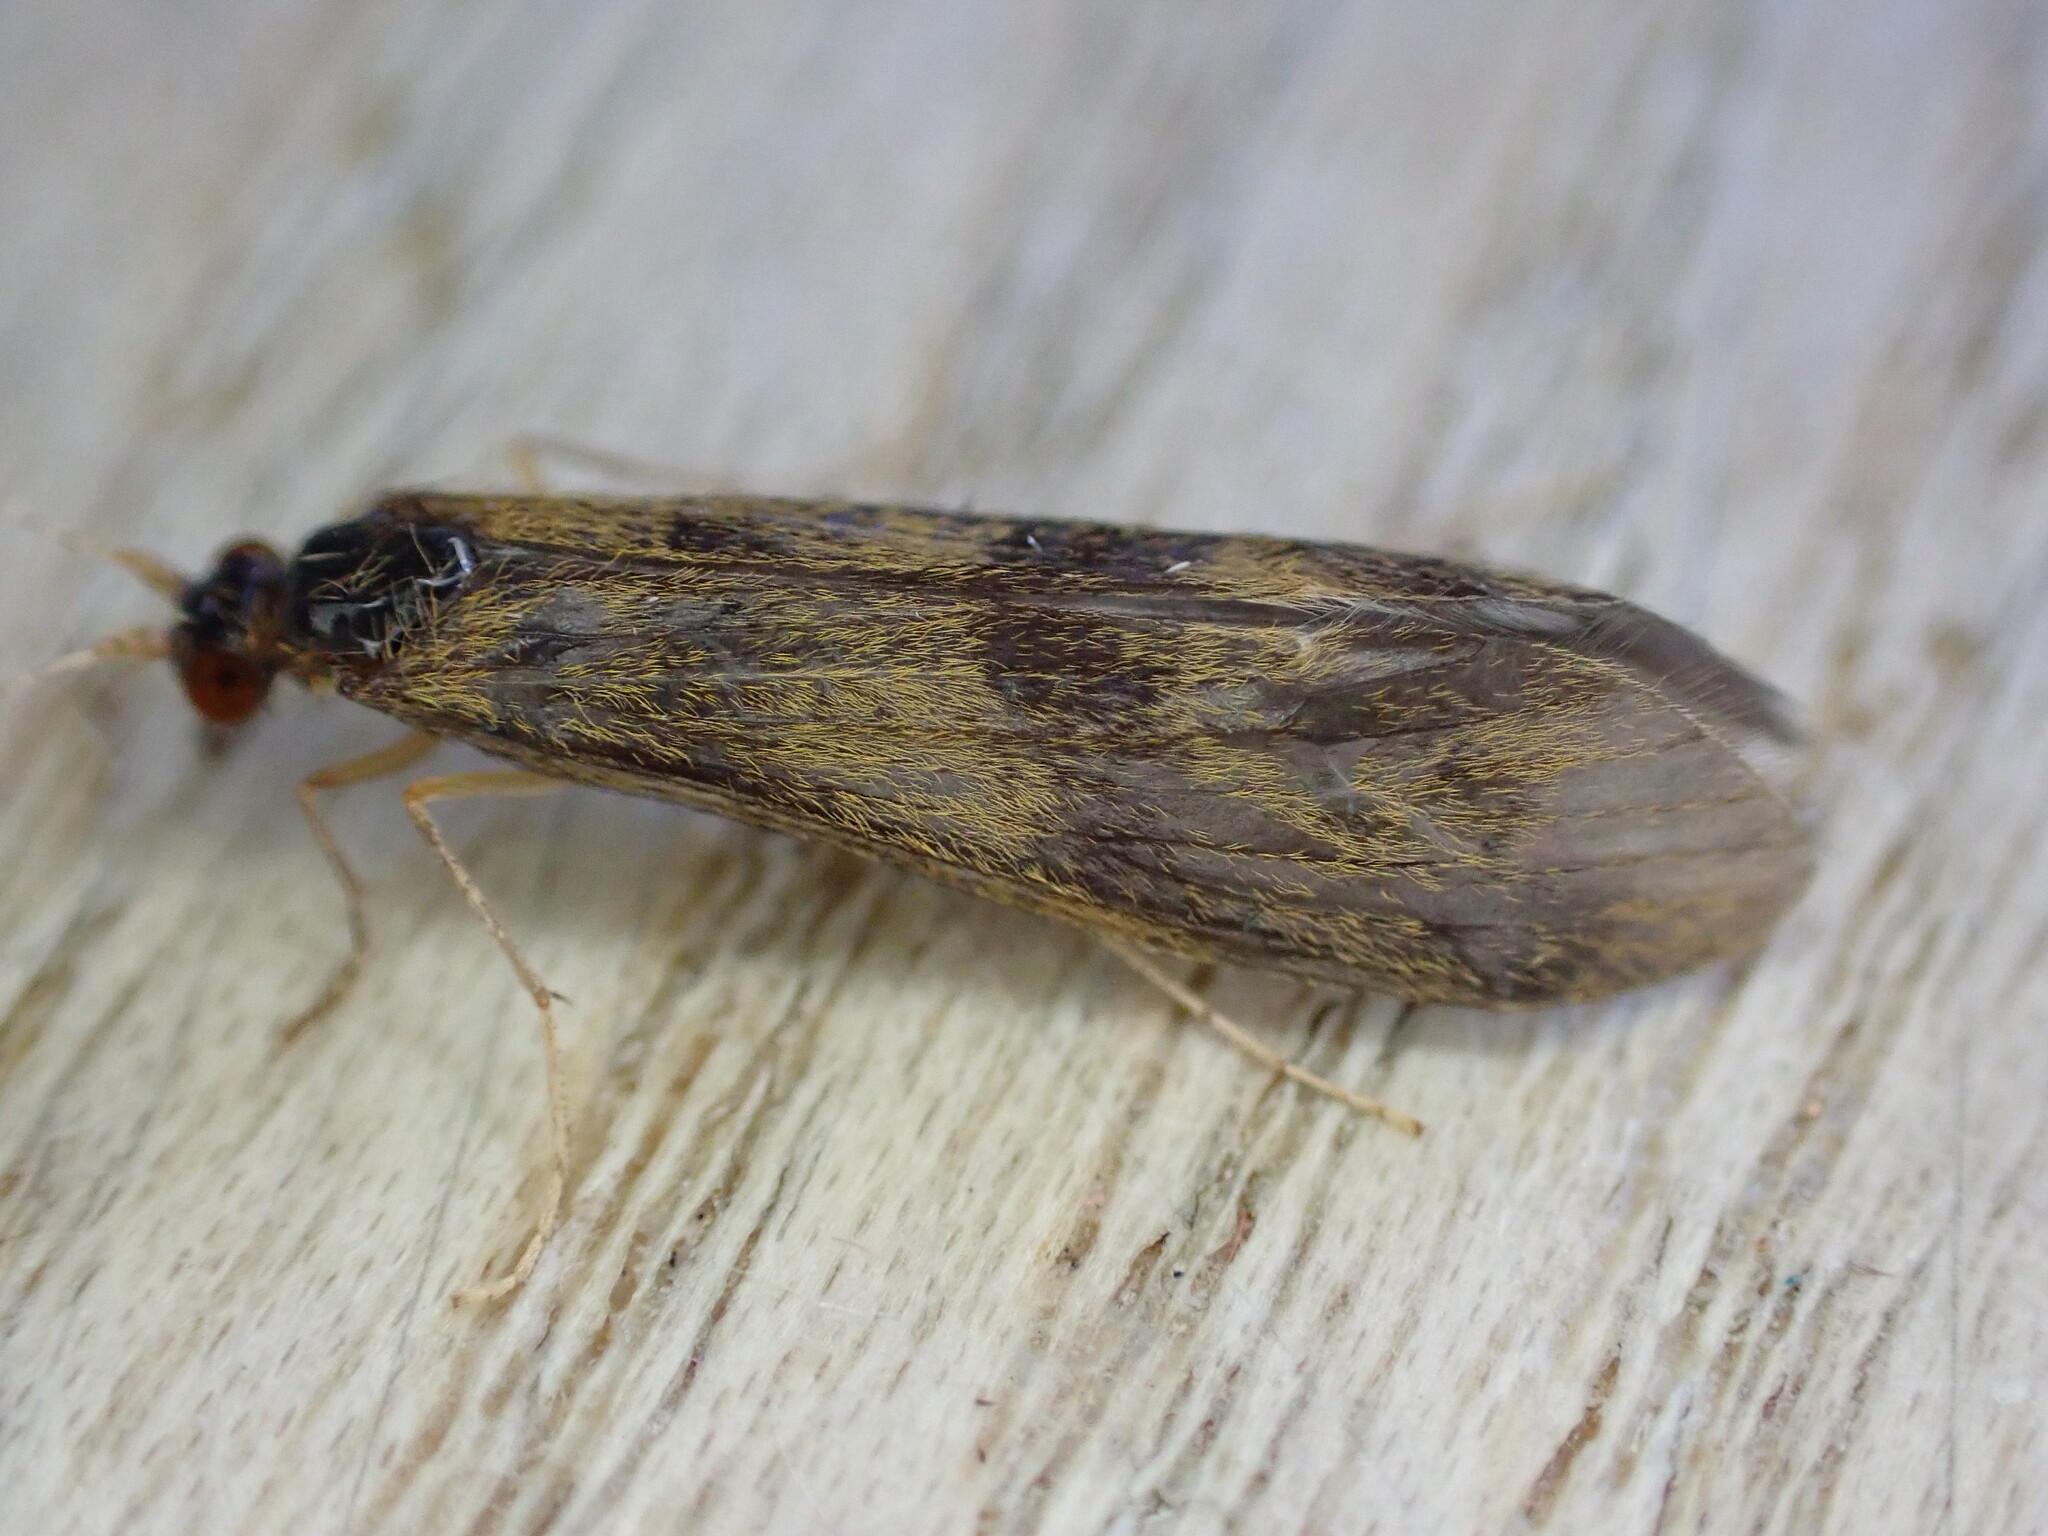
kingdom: Animalia
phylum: Arthropoda
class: Insecta
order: Trichoptera
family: Leptoceridae
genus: Mystacides
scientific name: Mystacides longicornis
